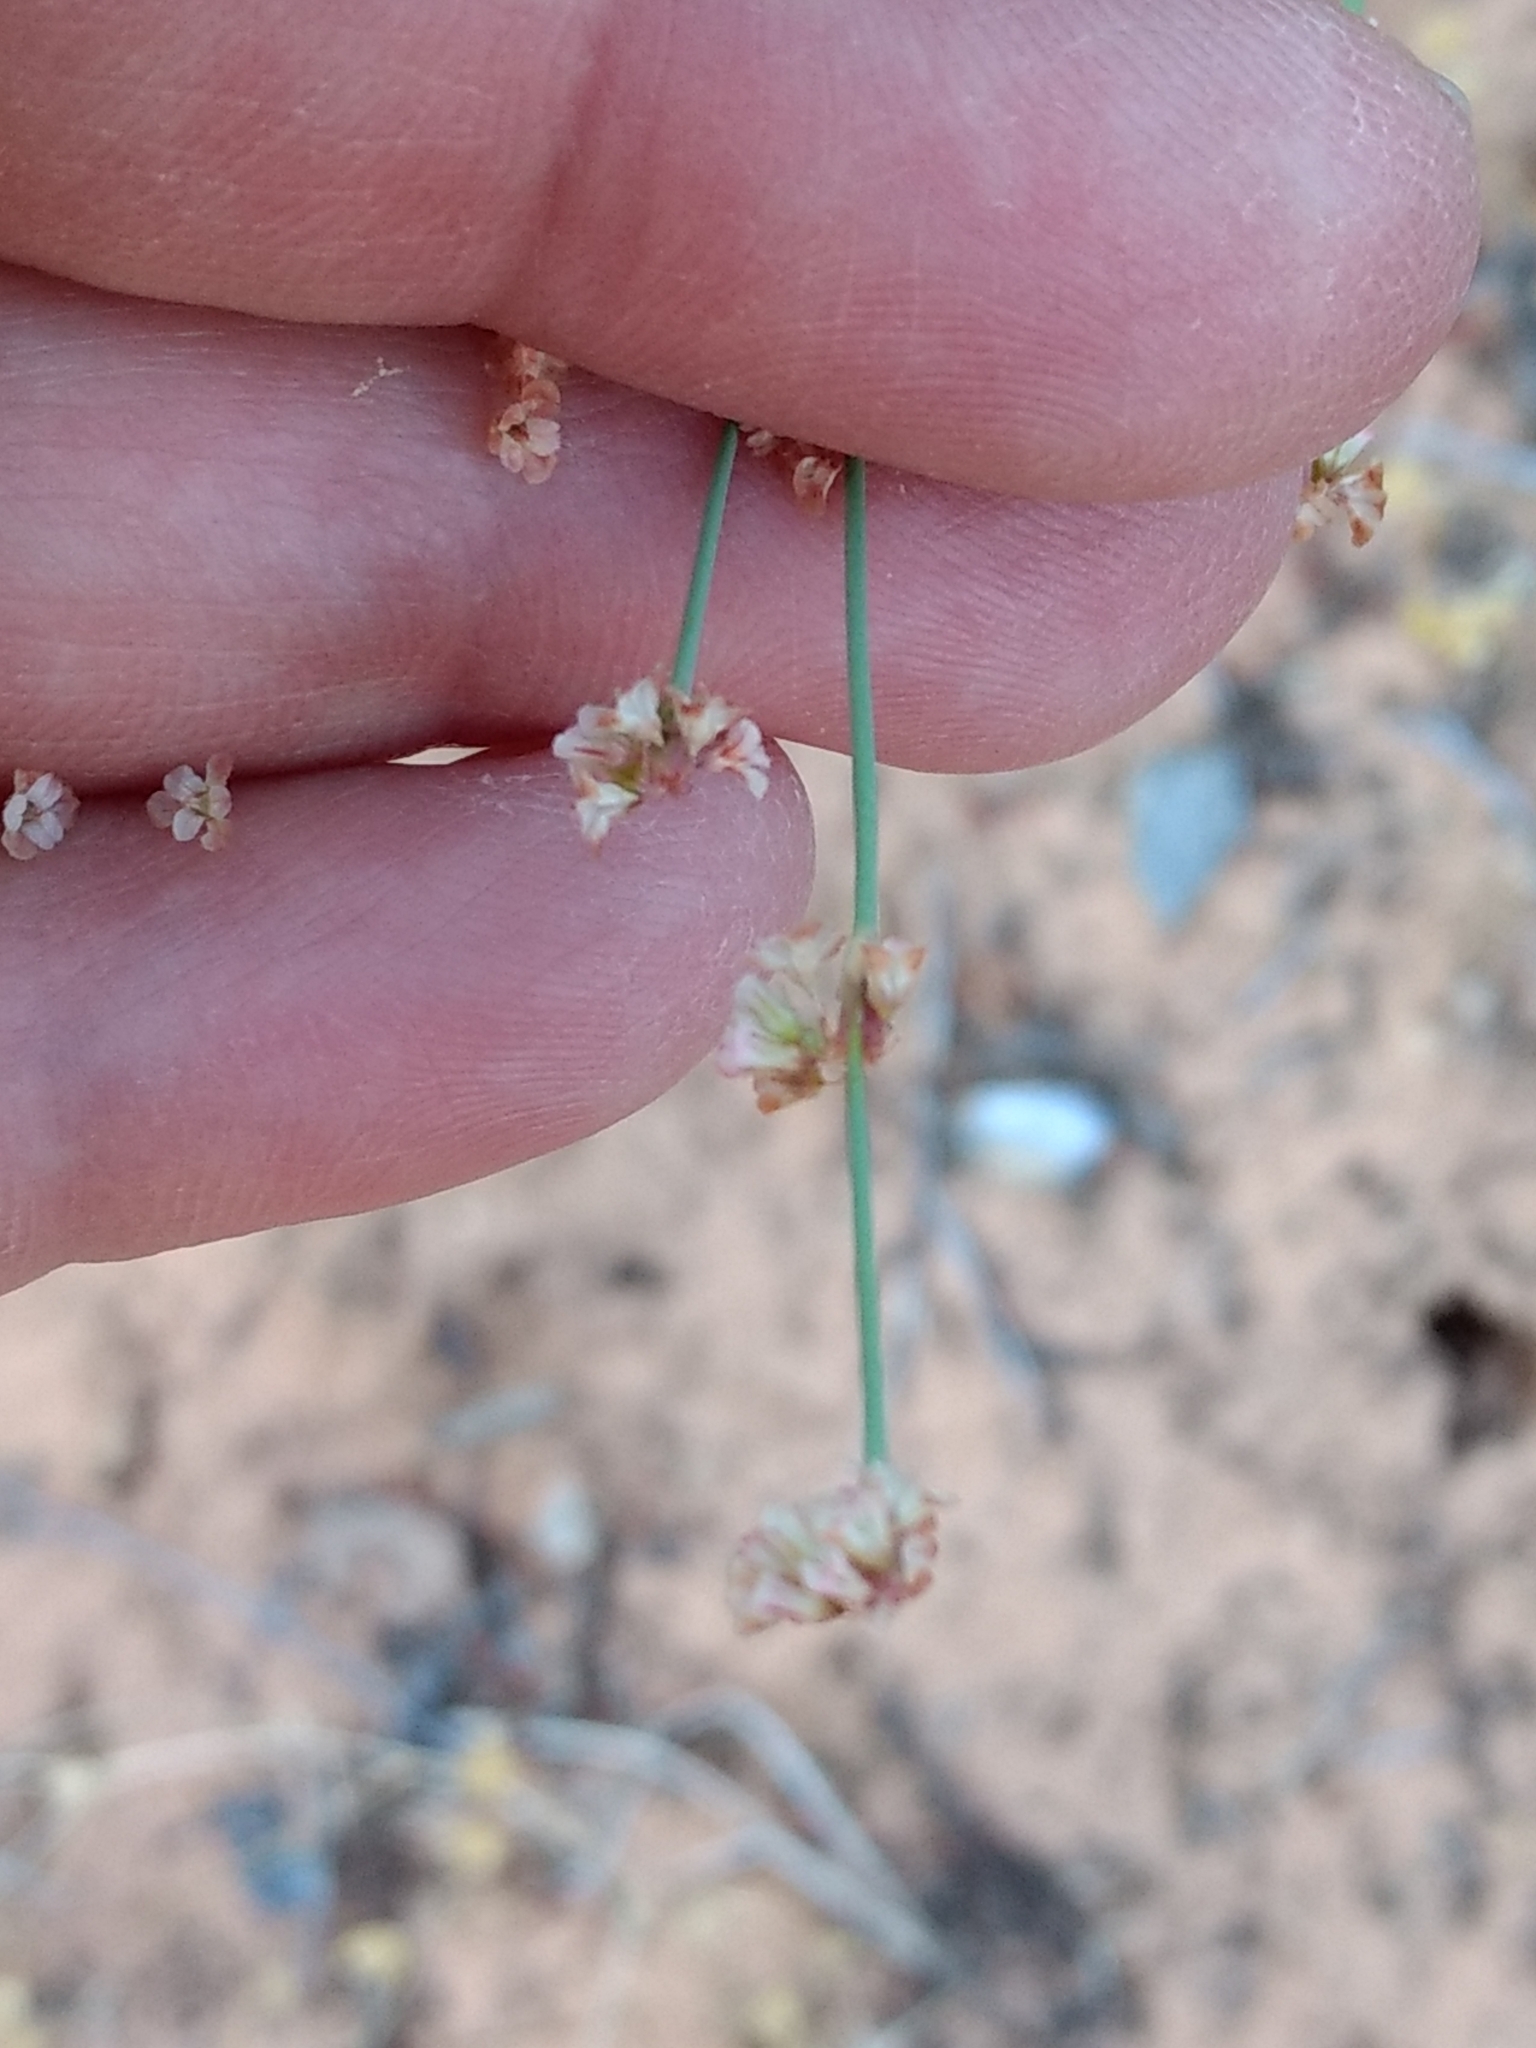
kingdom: Plantae
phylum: Tracheophyta
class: Magnoliopsida
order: Caryophyllales
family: Polygonaceae
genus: Eriogonum
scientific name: Eriogonum davidsonii
